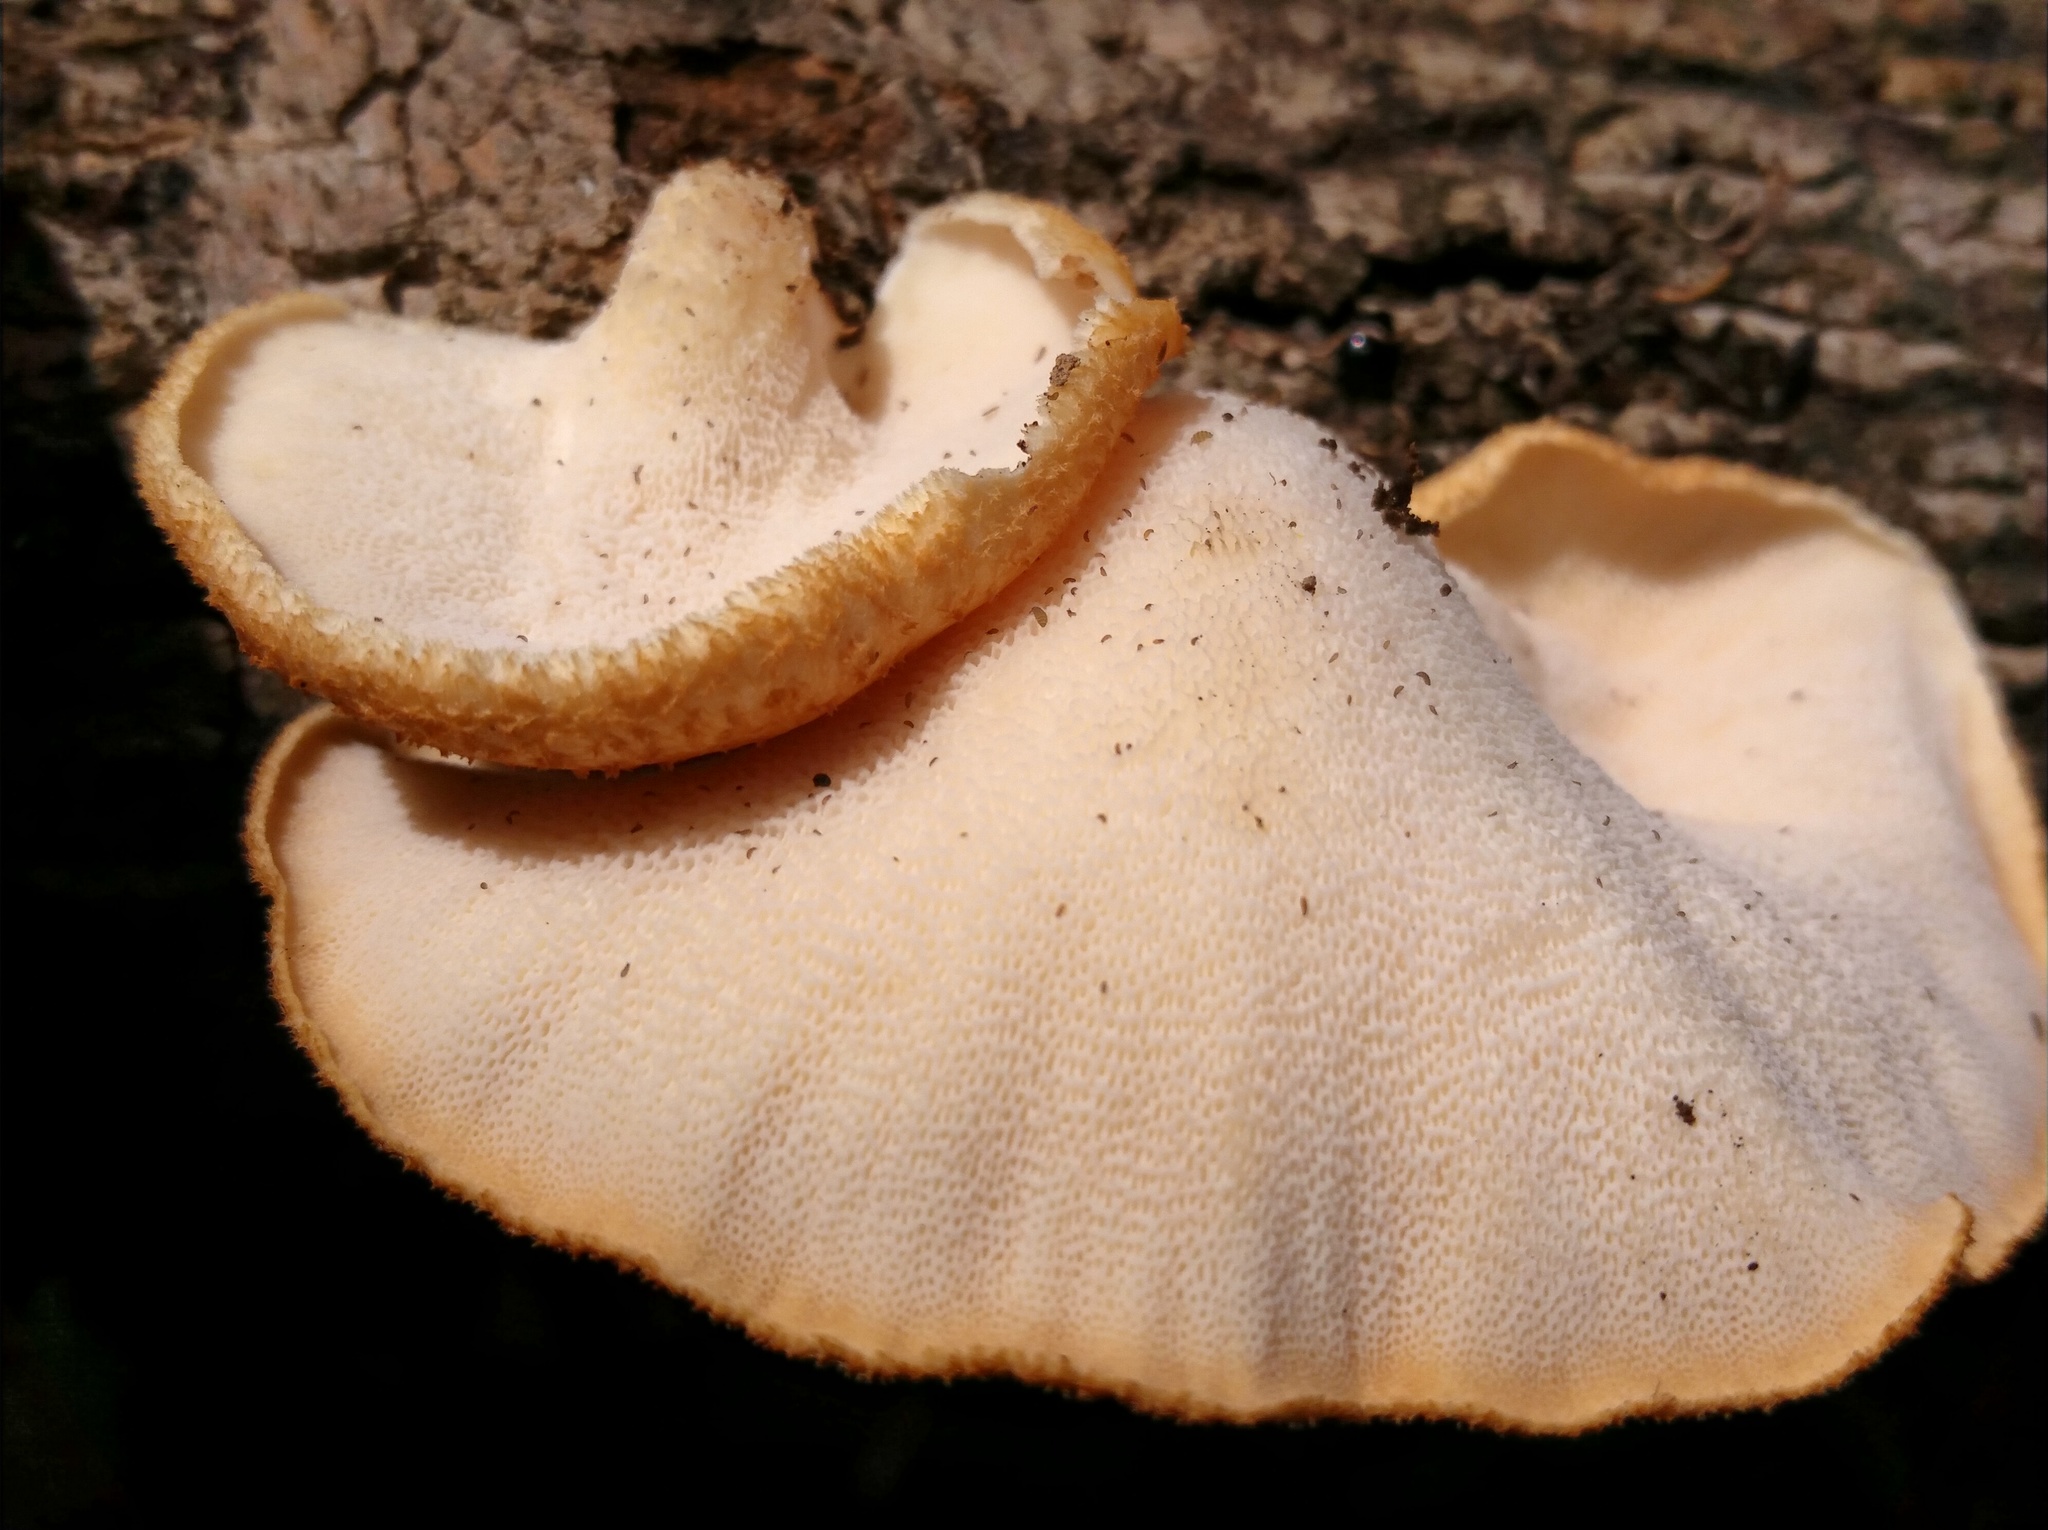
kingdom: Fungi
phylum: Basidiomycota
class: Agaricomycetes
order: Polyporales
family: Polyporaceae
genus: Neofavolus
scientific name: Neofavolus alveolaris
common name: Hexagonal-pored polypore
